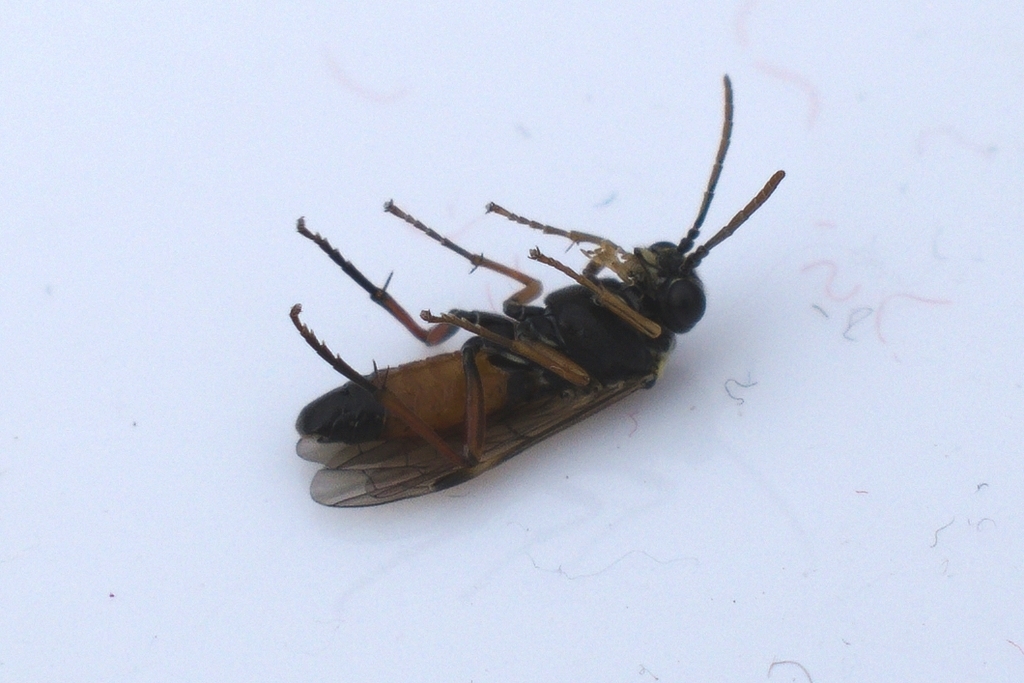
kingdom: Animalia
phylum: Arthropoda
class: Insecta
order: Hymenoptera
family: Tenthredinidae
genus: Aglaostigma
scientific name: Aglaostigma aucupariae
